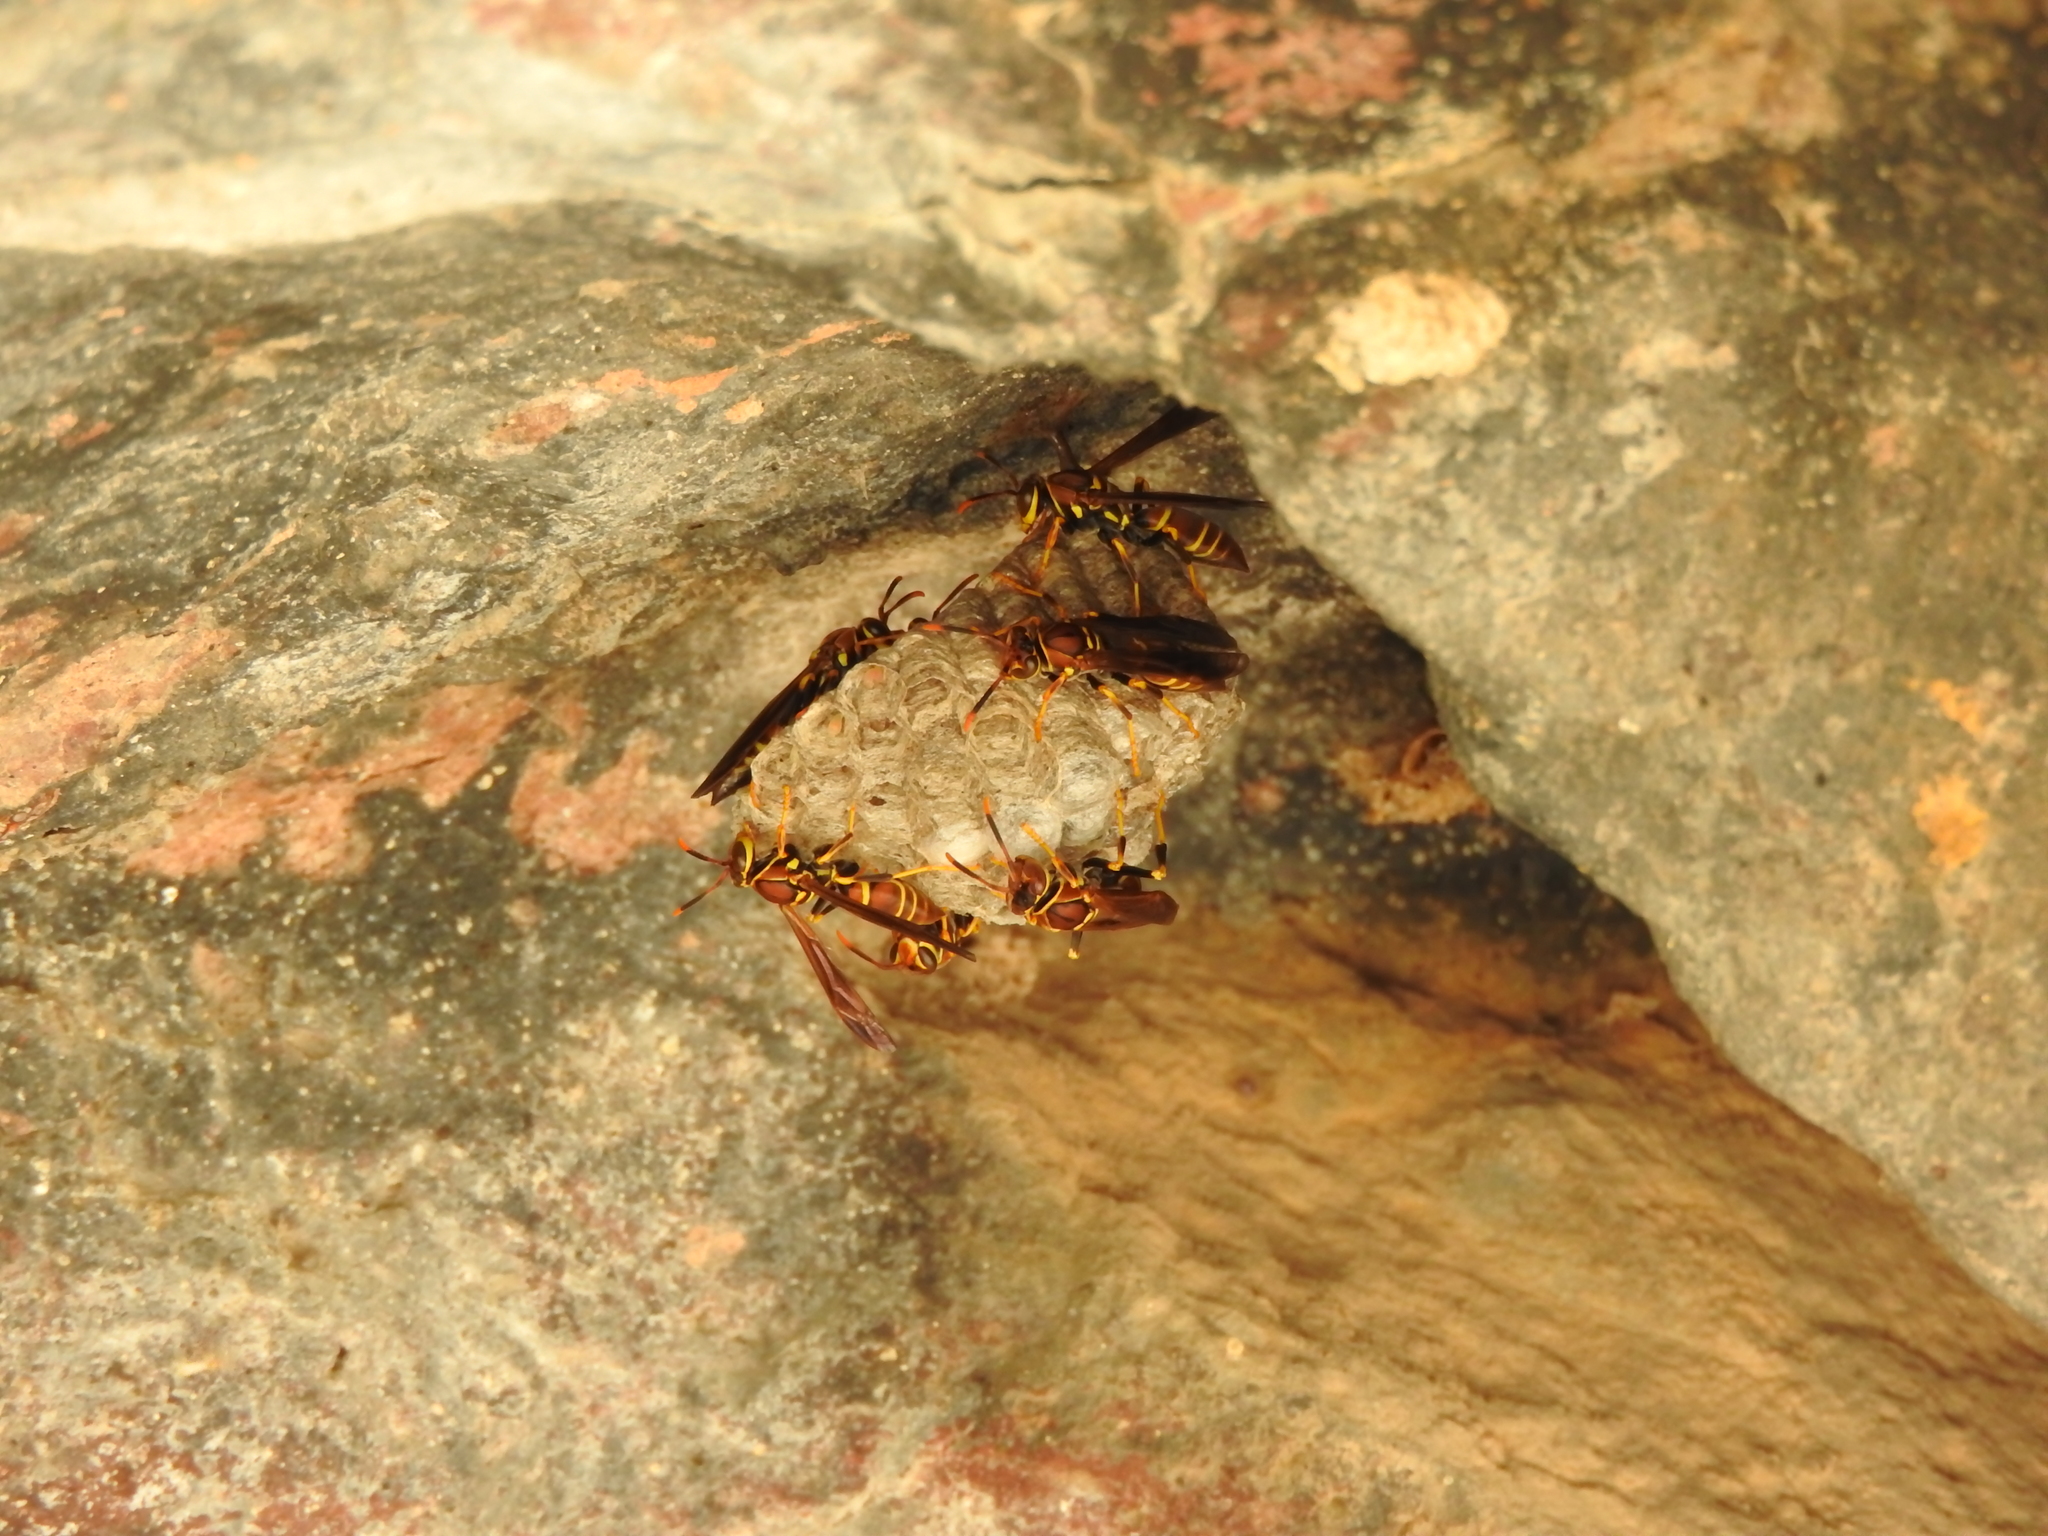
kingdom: Animalia
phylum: Arthropoda
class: Insecta
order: Hymenoptera
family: Eumenidae
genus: Polistes
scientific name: Polistes instabilis
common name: Unstable paper wasp
